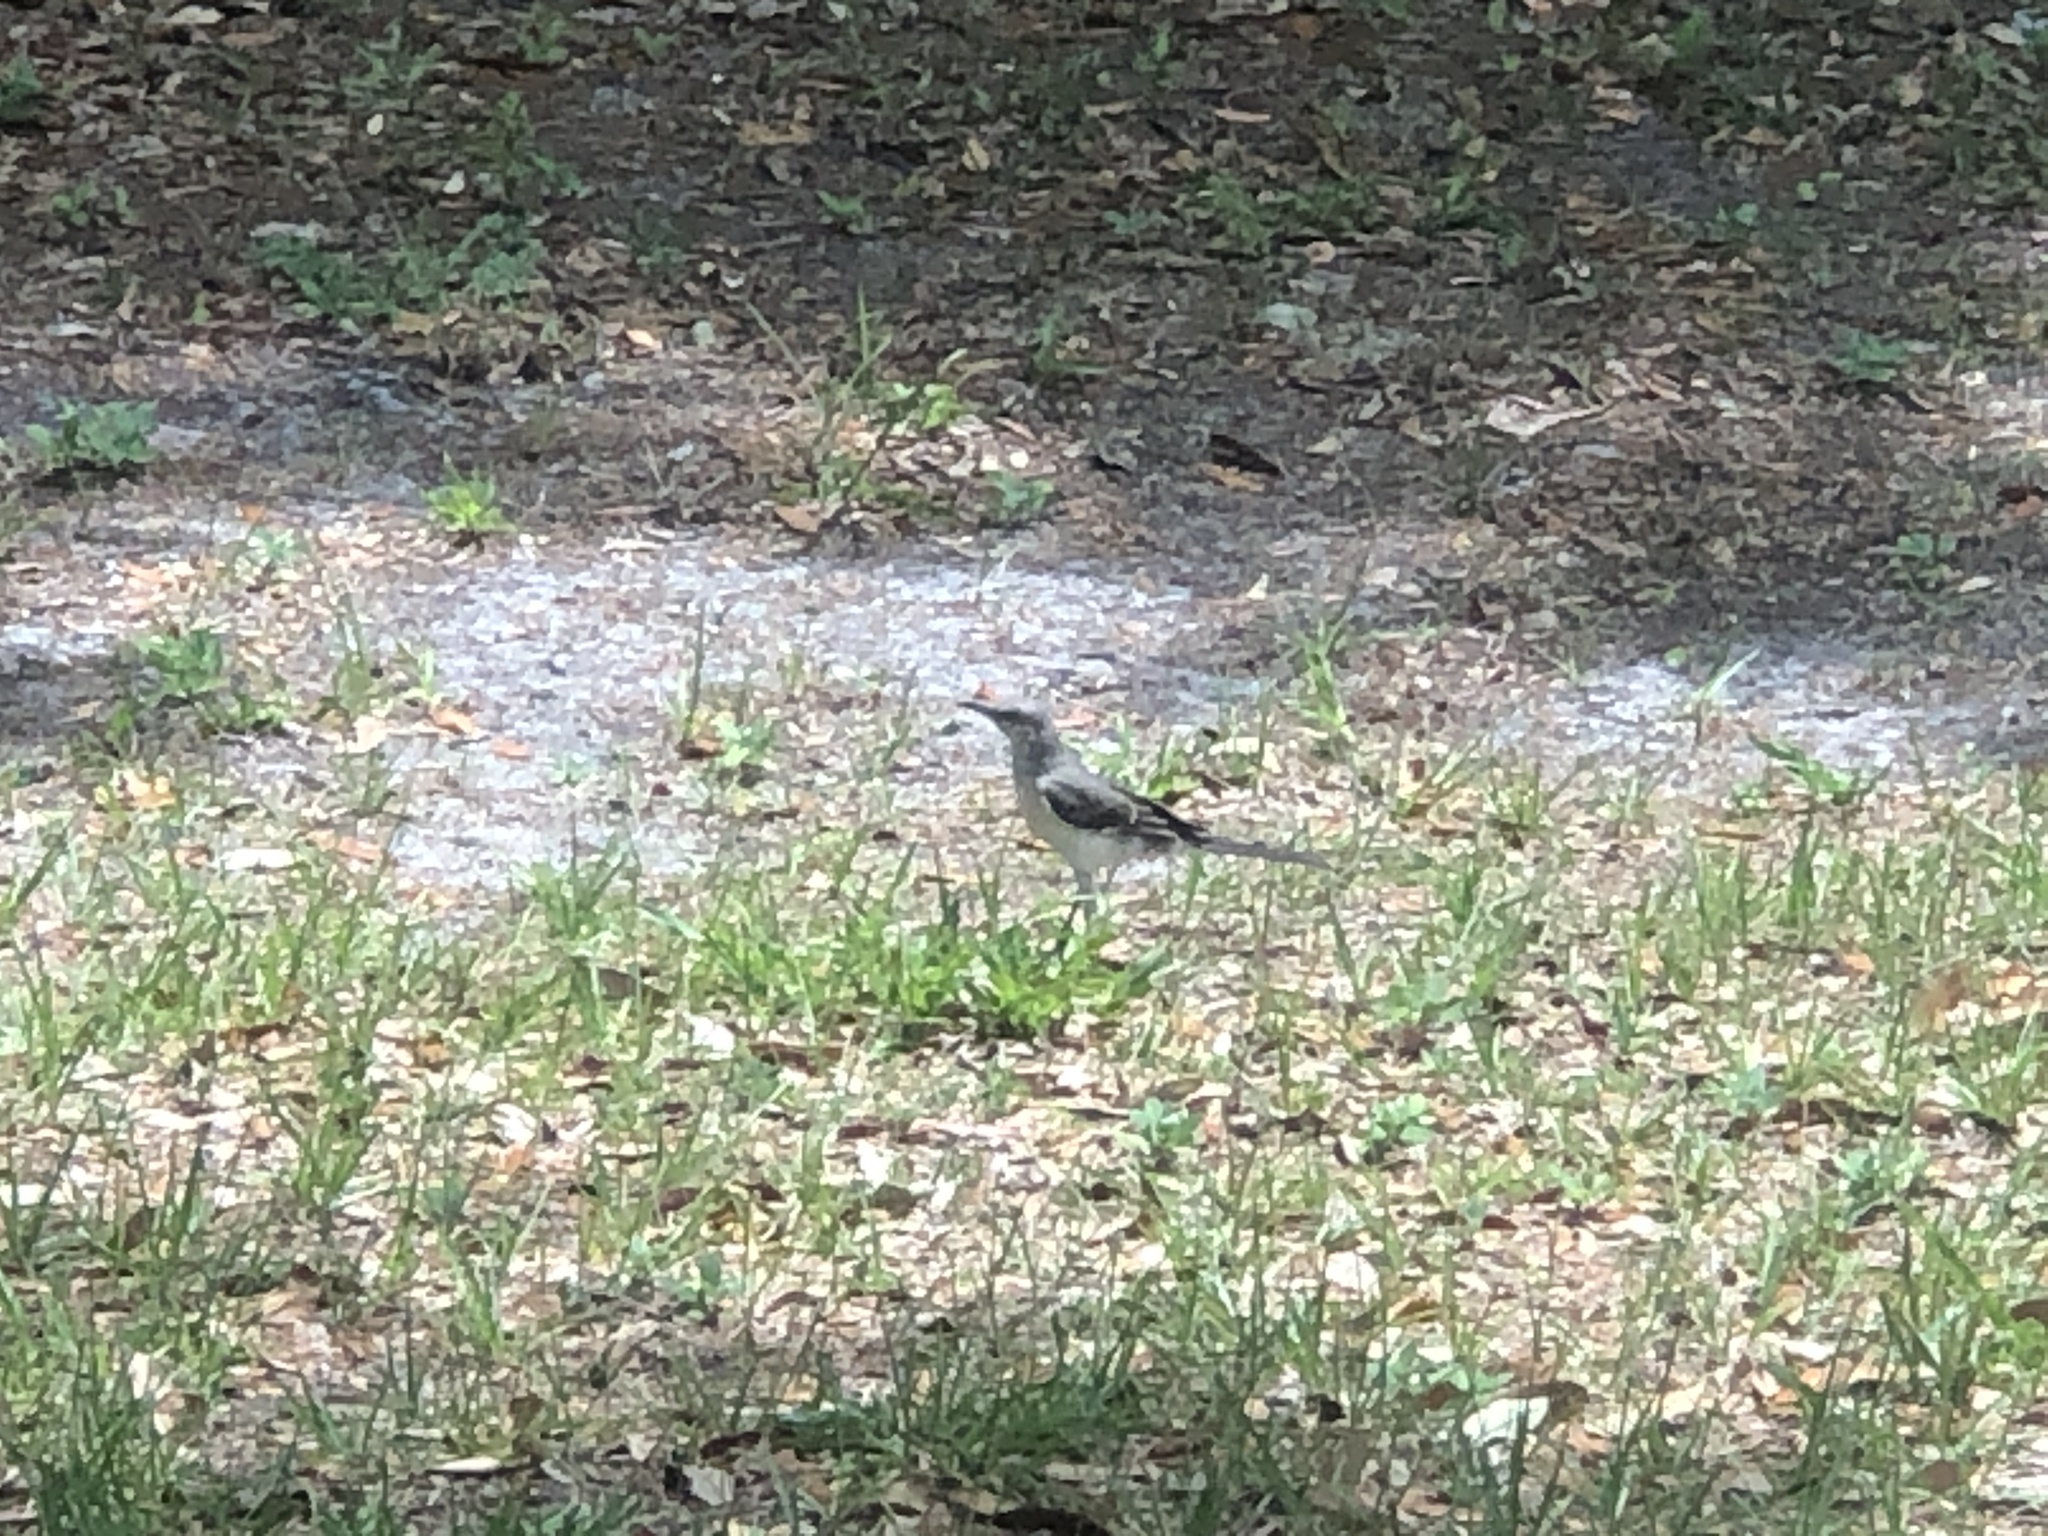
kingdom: Animalia
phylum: Chordata
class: Aves
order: Passeriformes
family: Mimidae
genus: Mimus
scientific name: Mimus polyglottos
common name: Northern mockingbird
